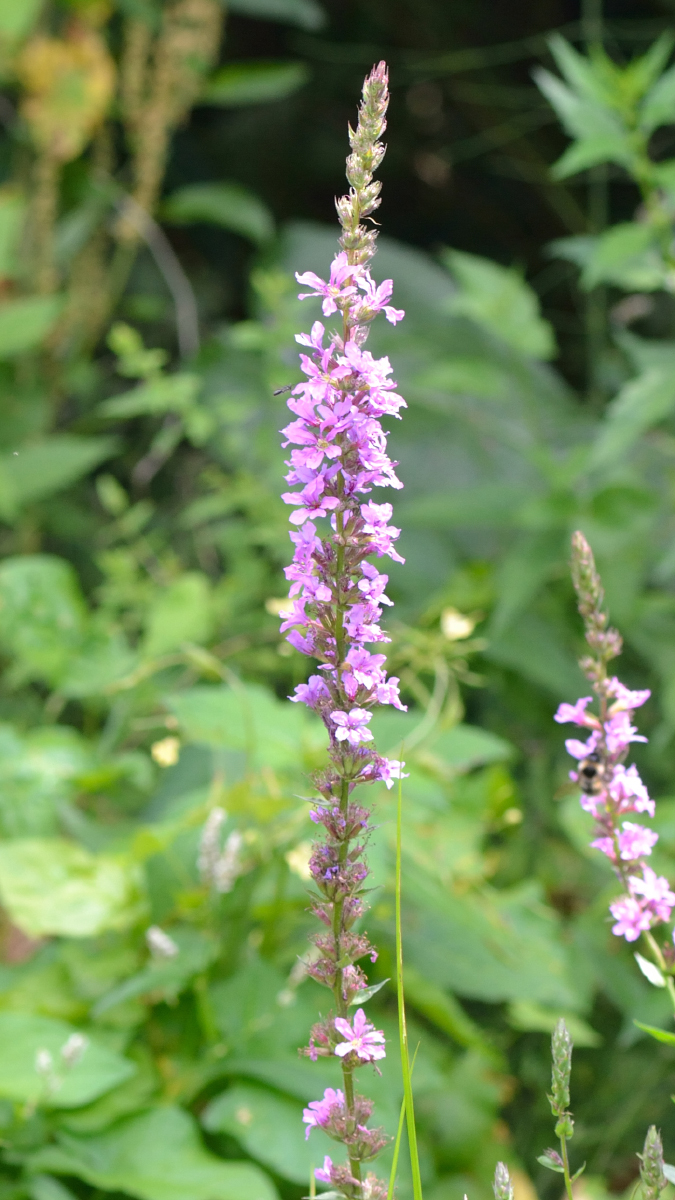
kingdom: Plantae
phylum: Tracheophyta
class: Magnoliopsida
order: Myrtales
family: Lythraceae
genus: Lythrum
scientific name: Lythrum salicaria
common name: Purple loosestrife
